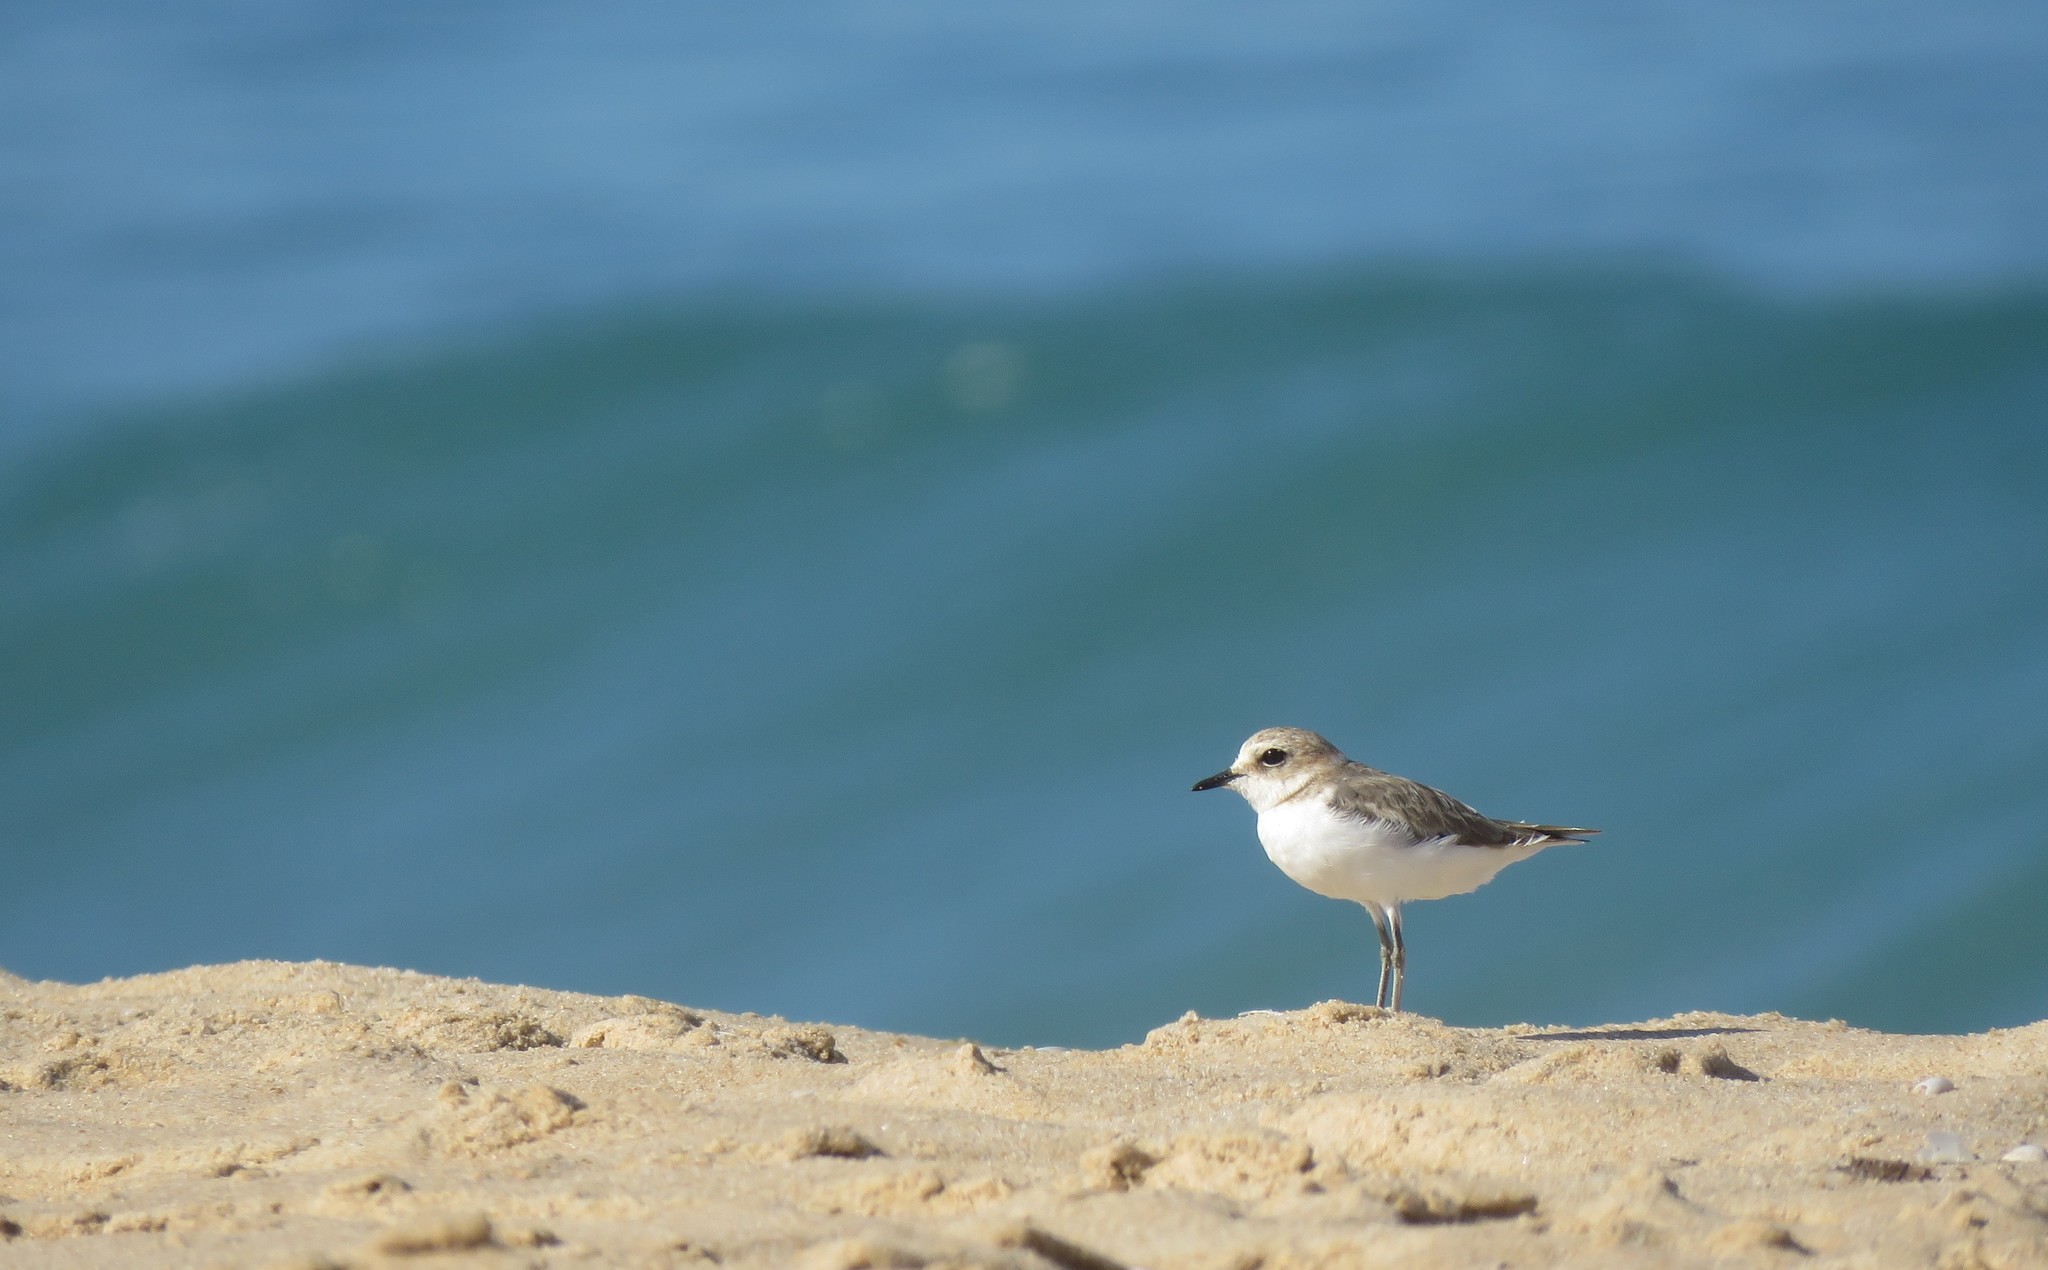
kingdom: Animalia
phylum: Chordata
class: Aves
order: Charadriiformes
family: Charadriidae
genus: Charadrius
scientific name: Charadrius alexandrinus
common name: Kentish plover
